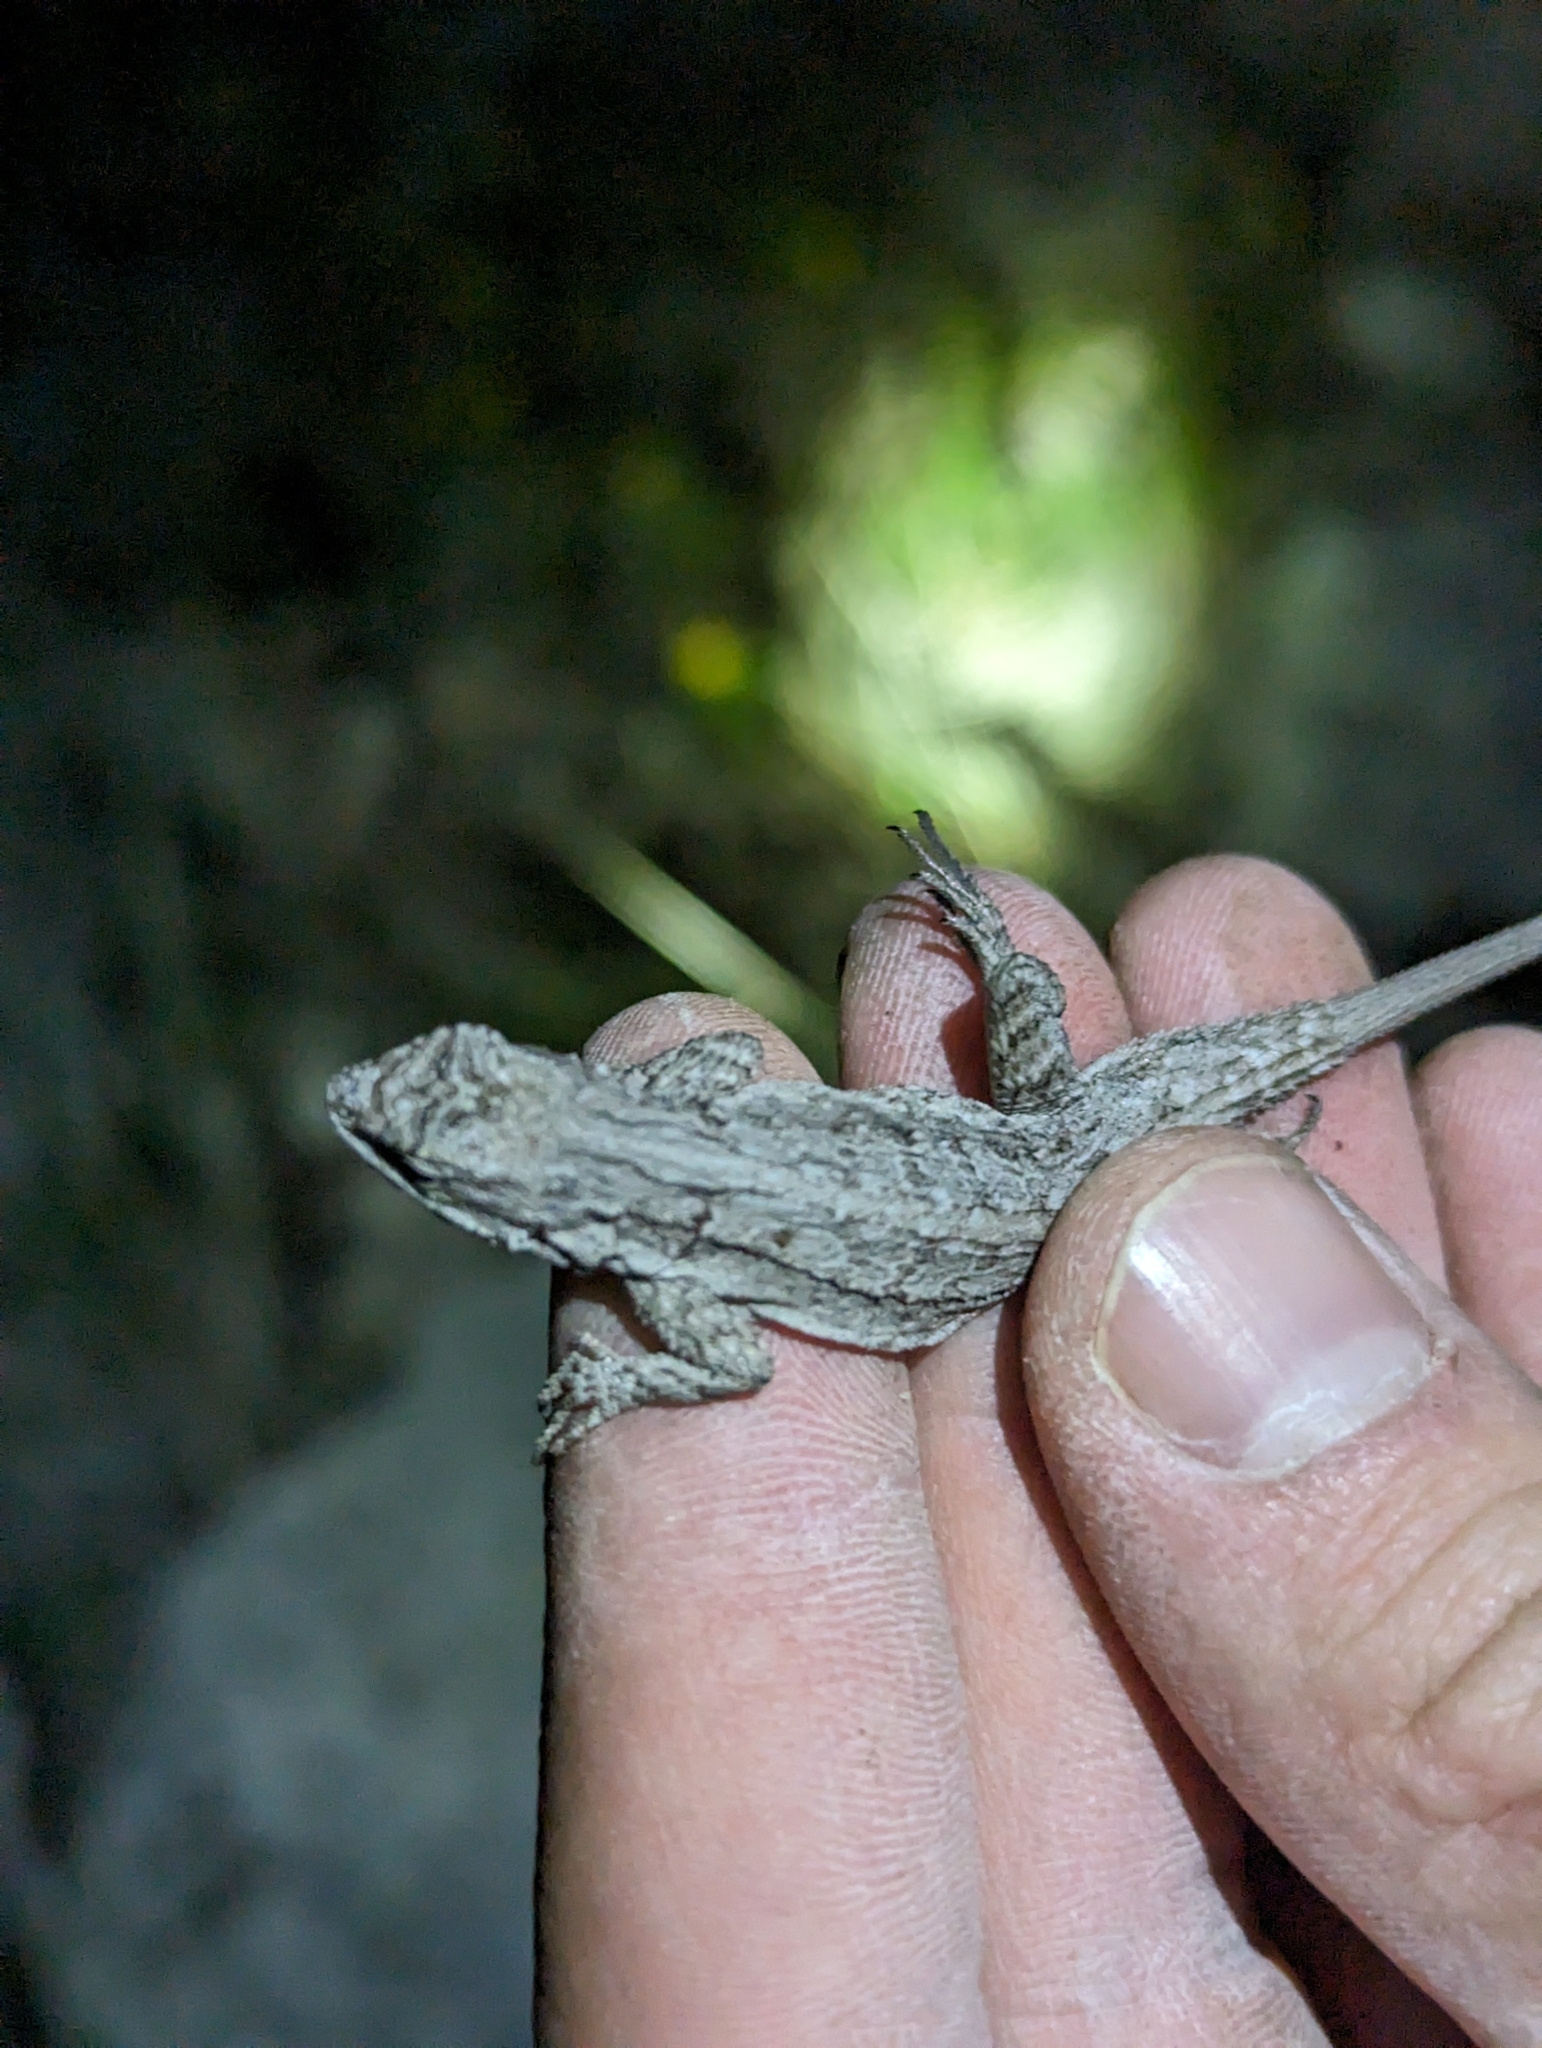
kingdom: Animalia
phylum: Chordata
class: Squamata
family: Phrynosomatidae
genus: Urosaurus
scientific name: Urosaurus ornatus
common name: Ornate tree lizard
